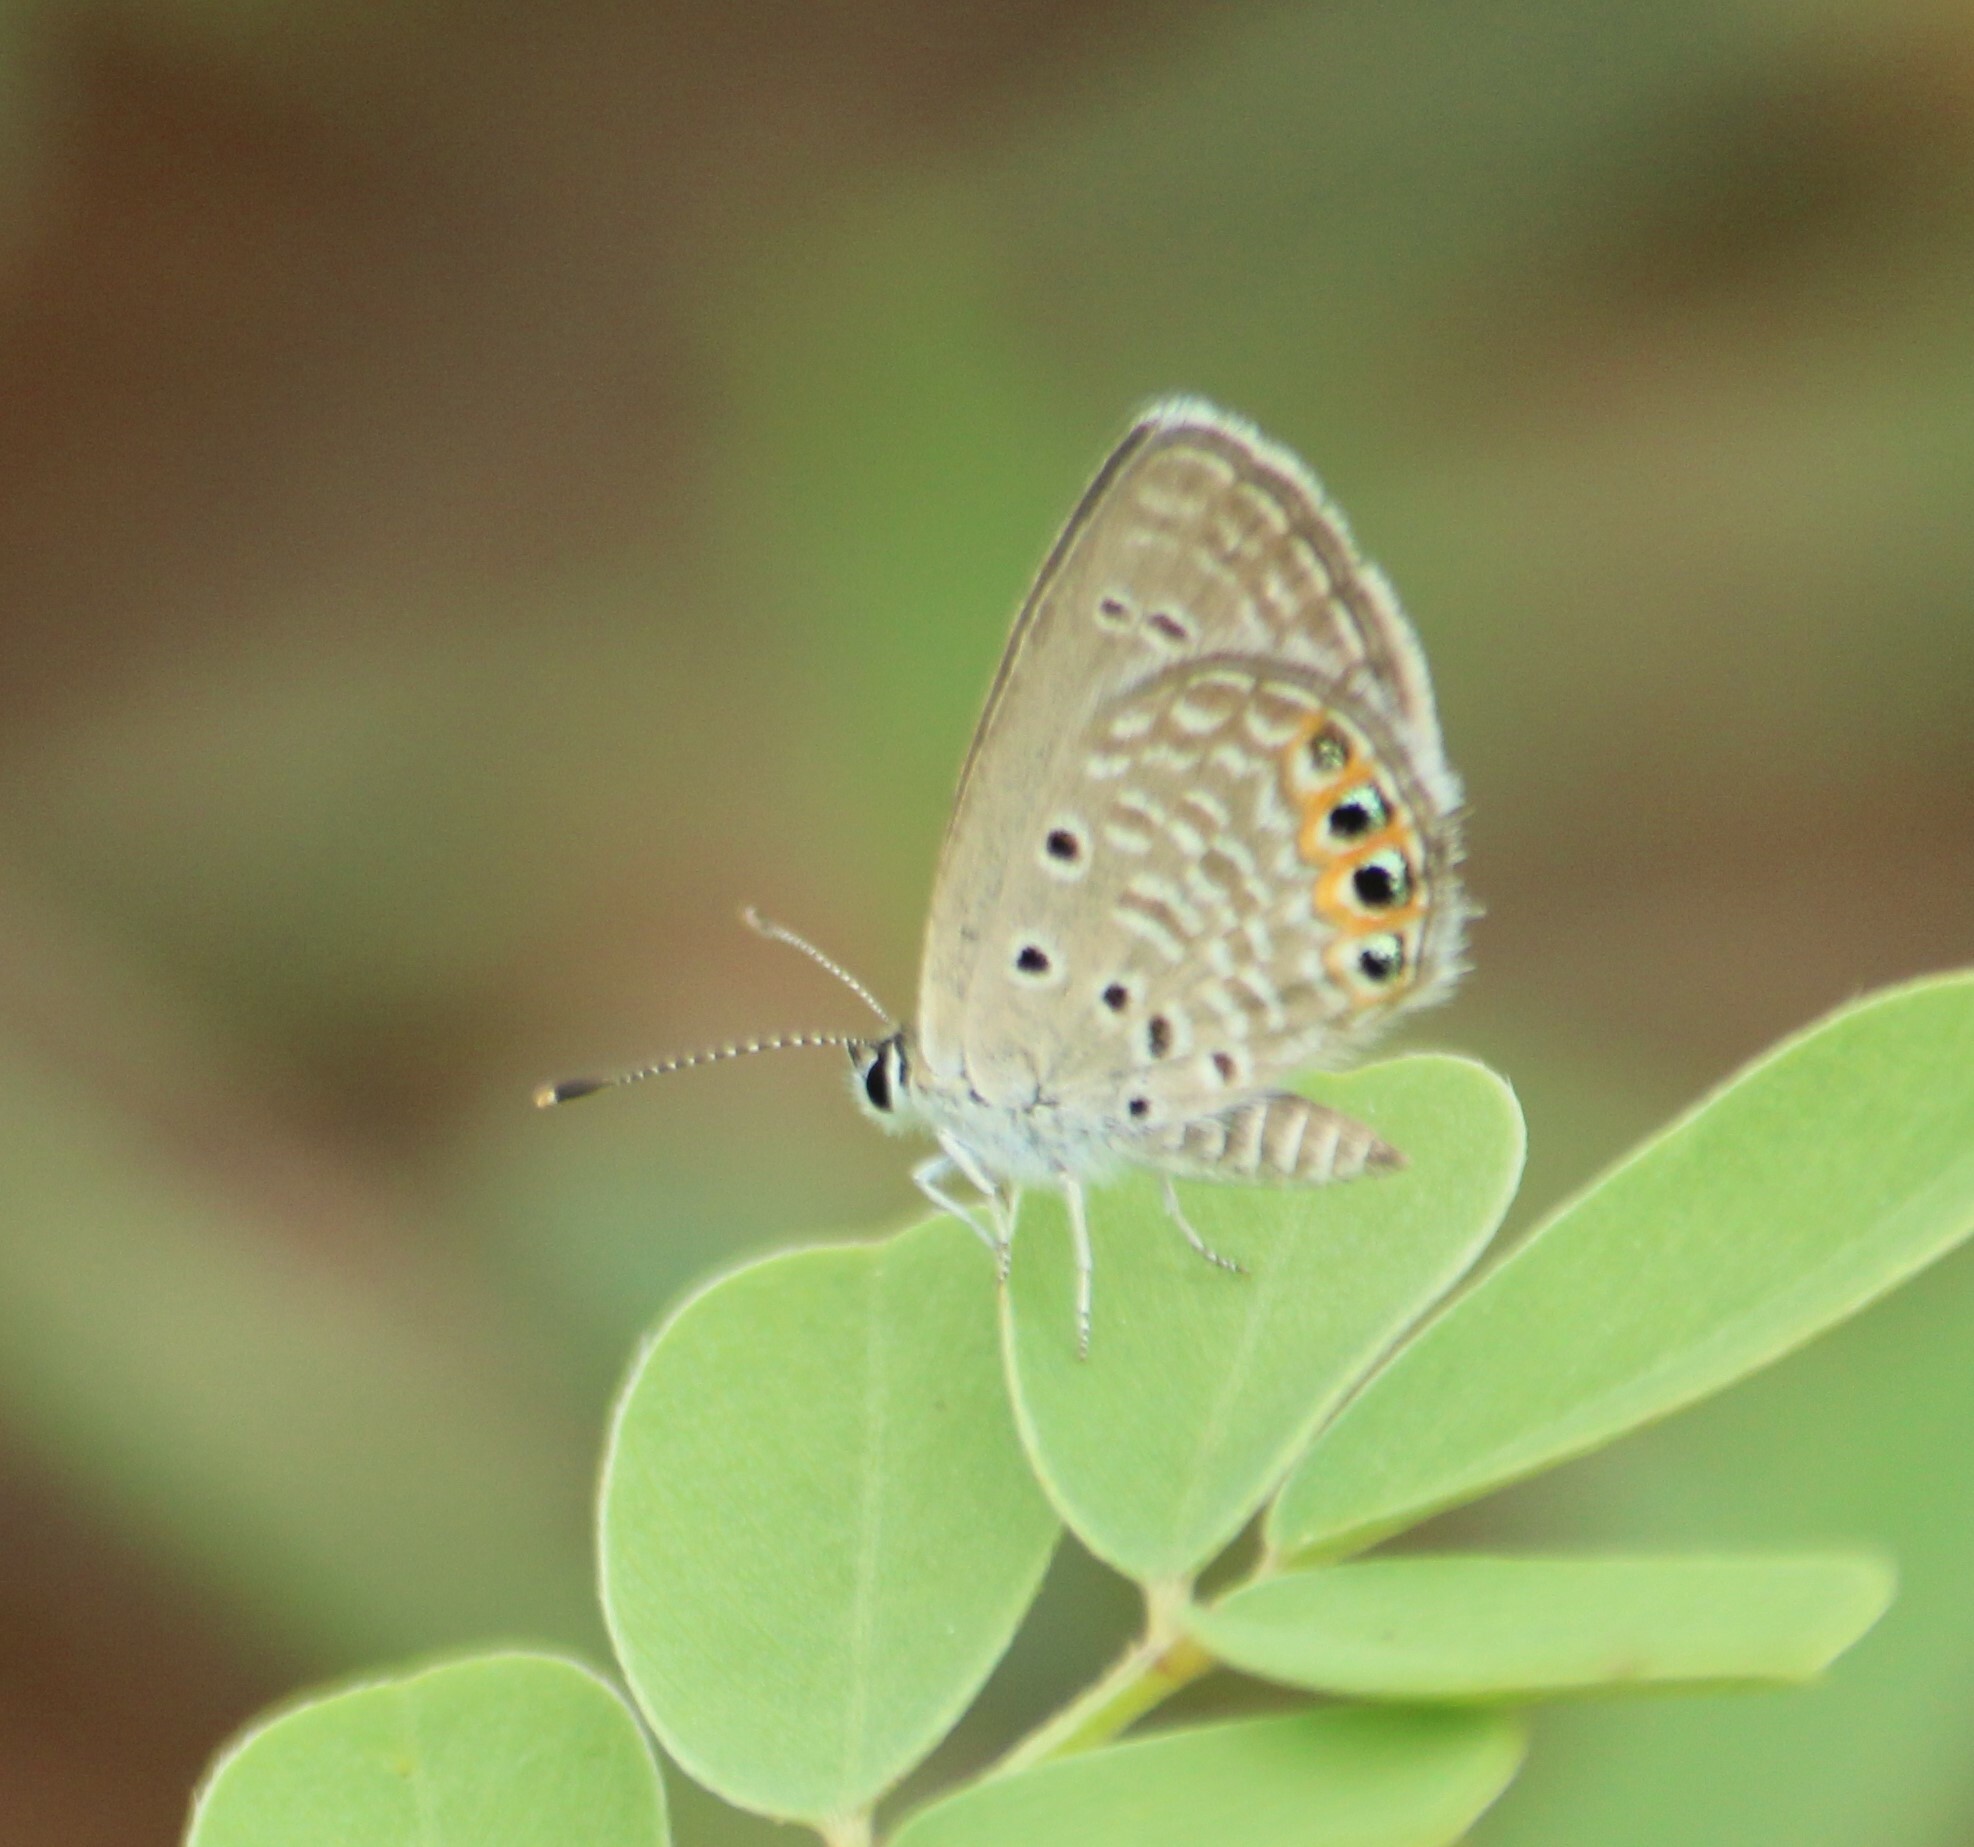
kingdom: Animalia
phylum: Arthropoda
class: Insecta
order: Lepidoptera
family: Lycaenidae
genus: Freyeria
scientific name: Freyeria trochylus
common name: Grass jewel
